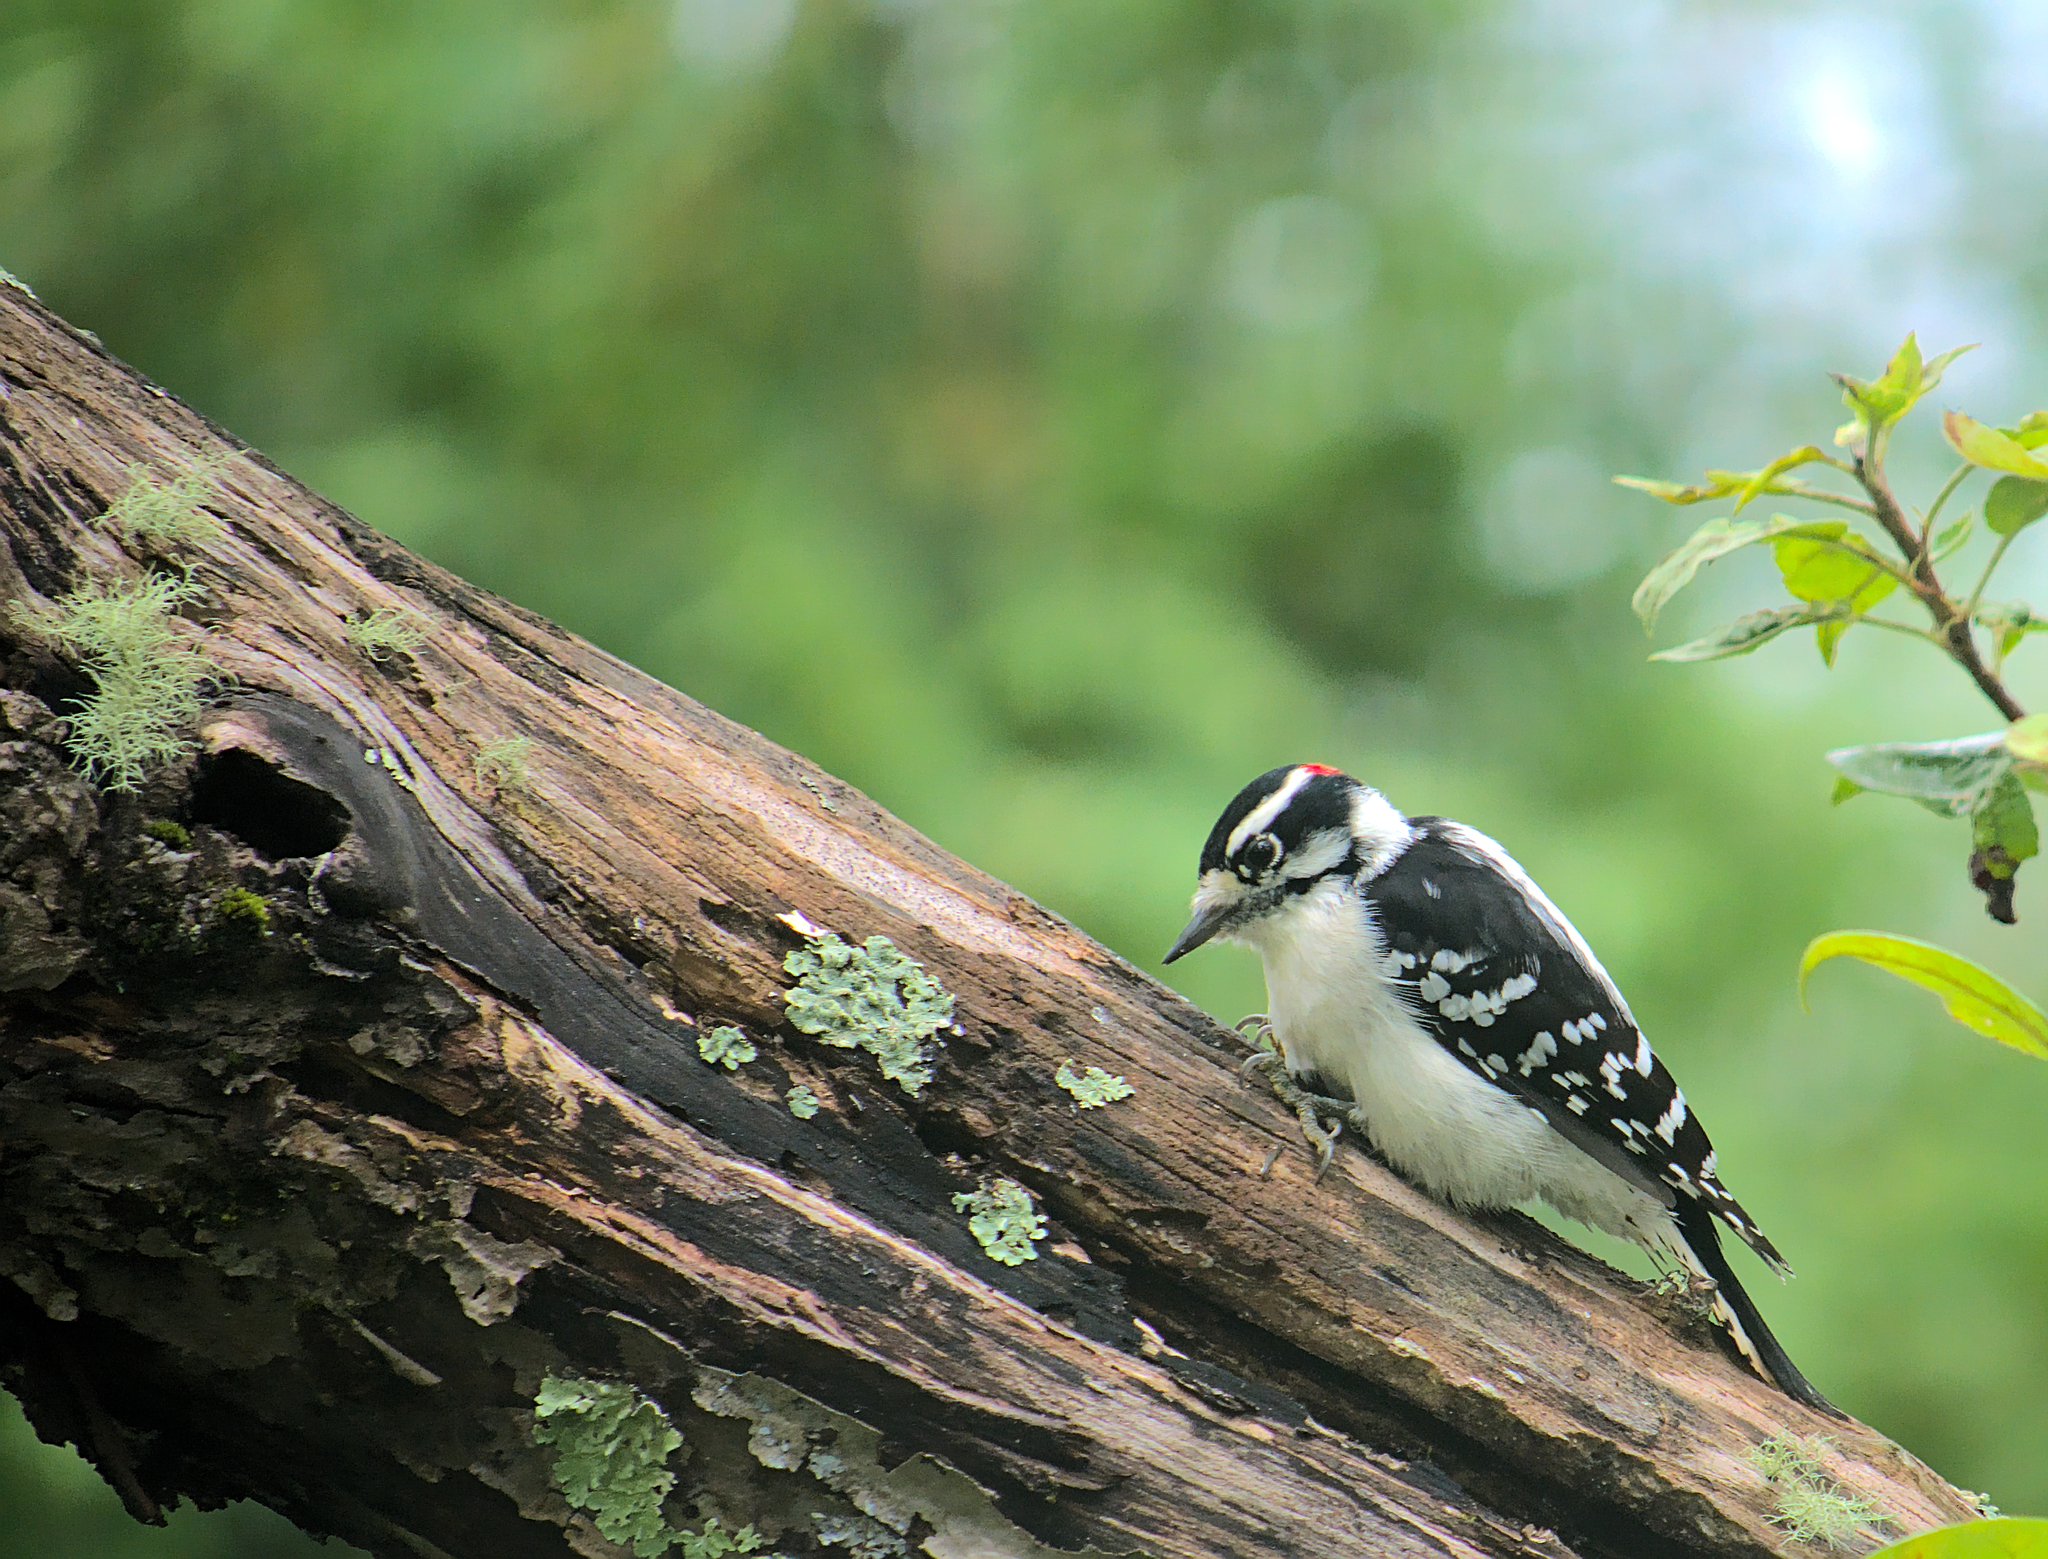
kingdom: Animalia
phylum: Chordata
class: Aves
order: Piciformes
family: Picidae
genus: Dryobates
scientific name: Dryobates pubescens
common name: Downy woodpecker
